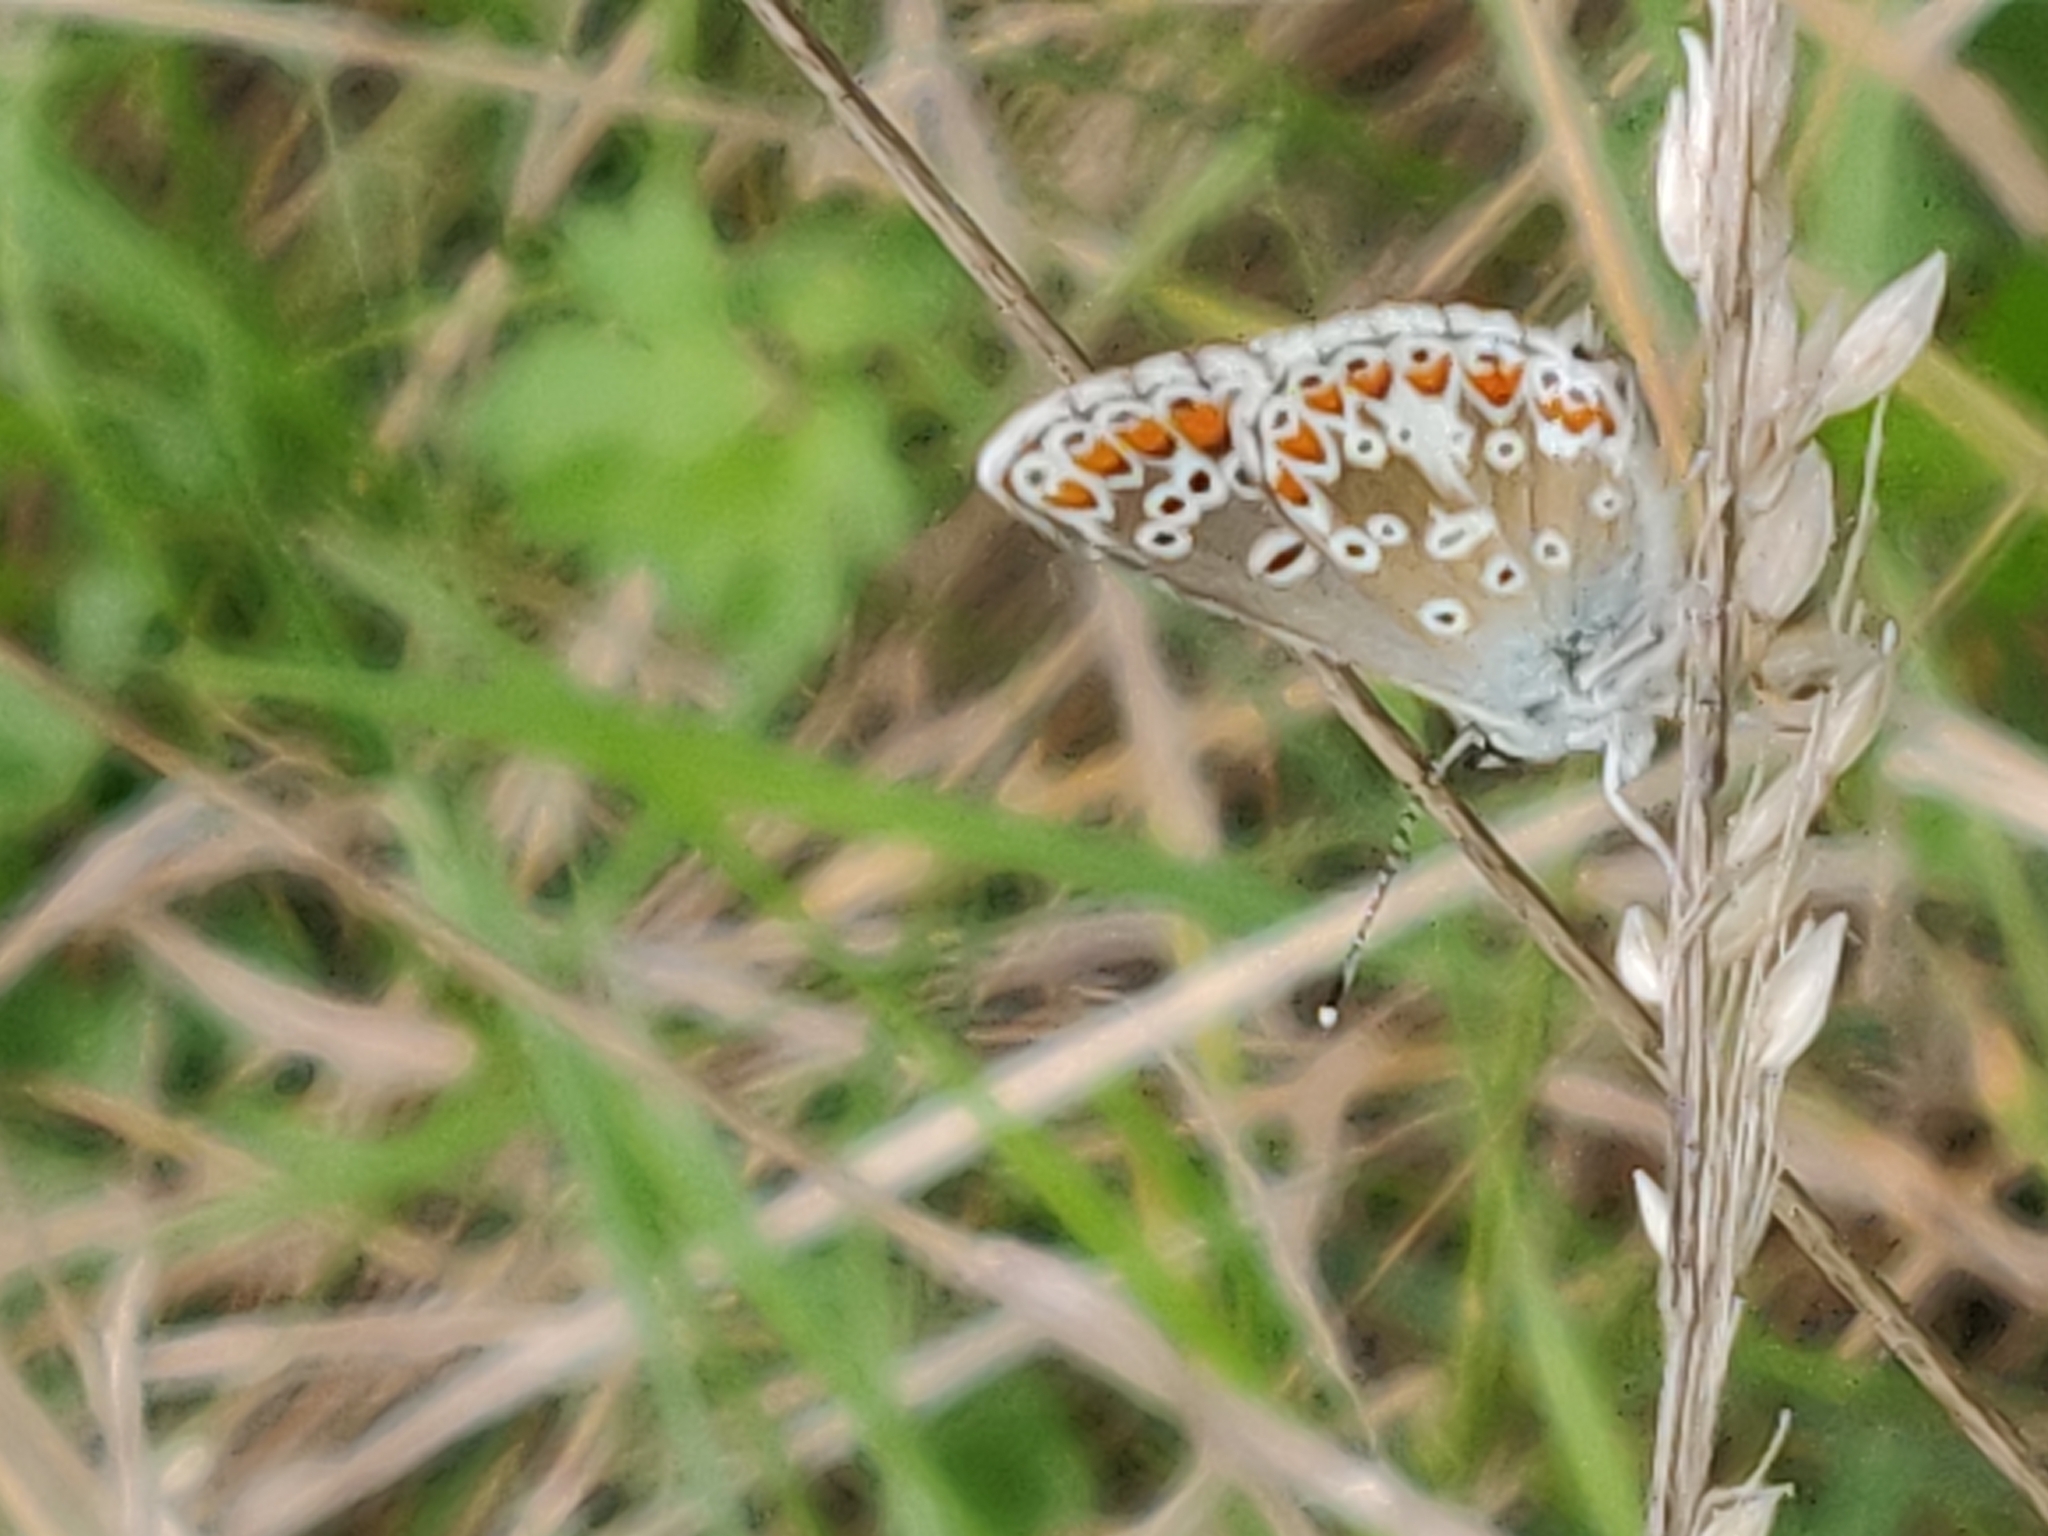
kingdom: Animalia
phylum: Arthropoda
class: Insecta
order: Lepidoptera
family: Lycaenidae
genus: Aricia
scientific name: Aricia agestis
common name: Brown argus
